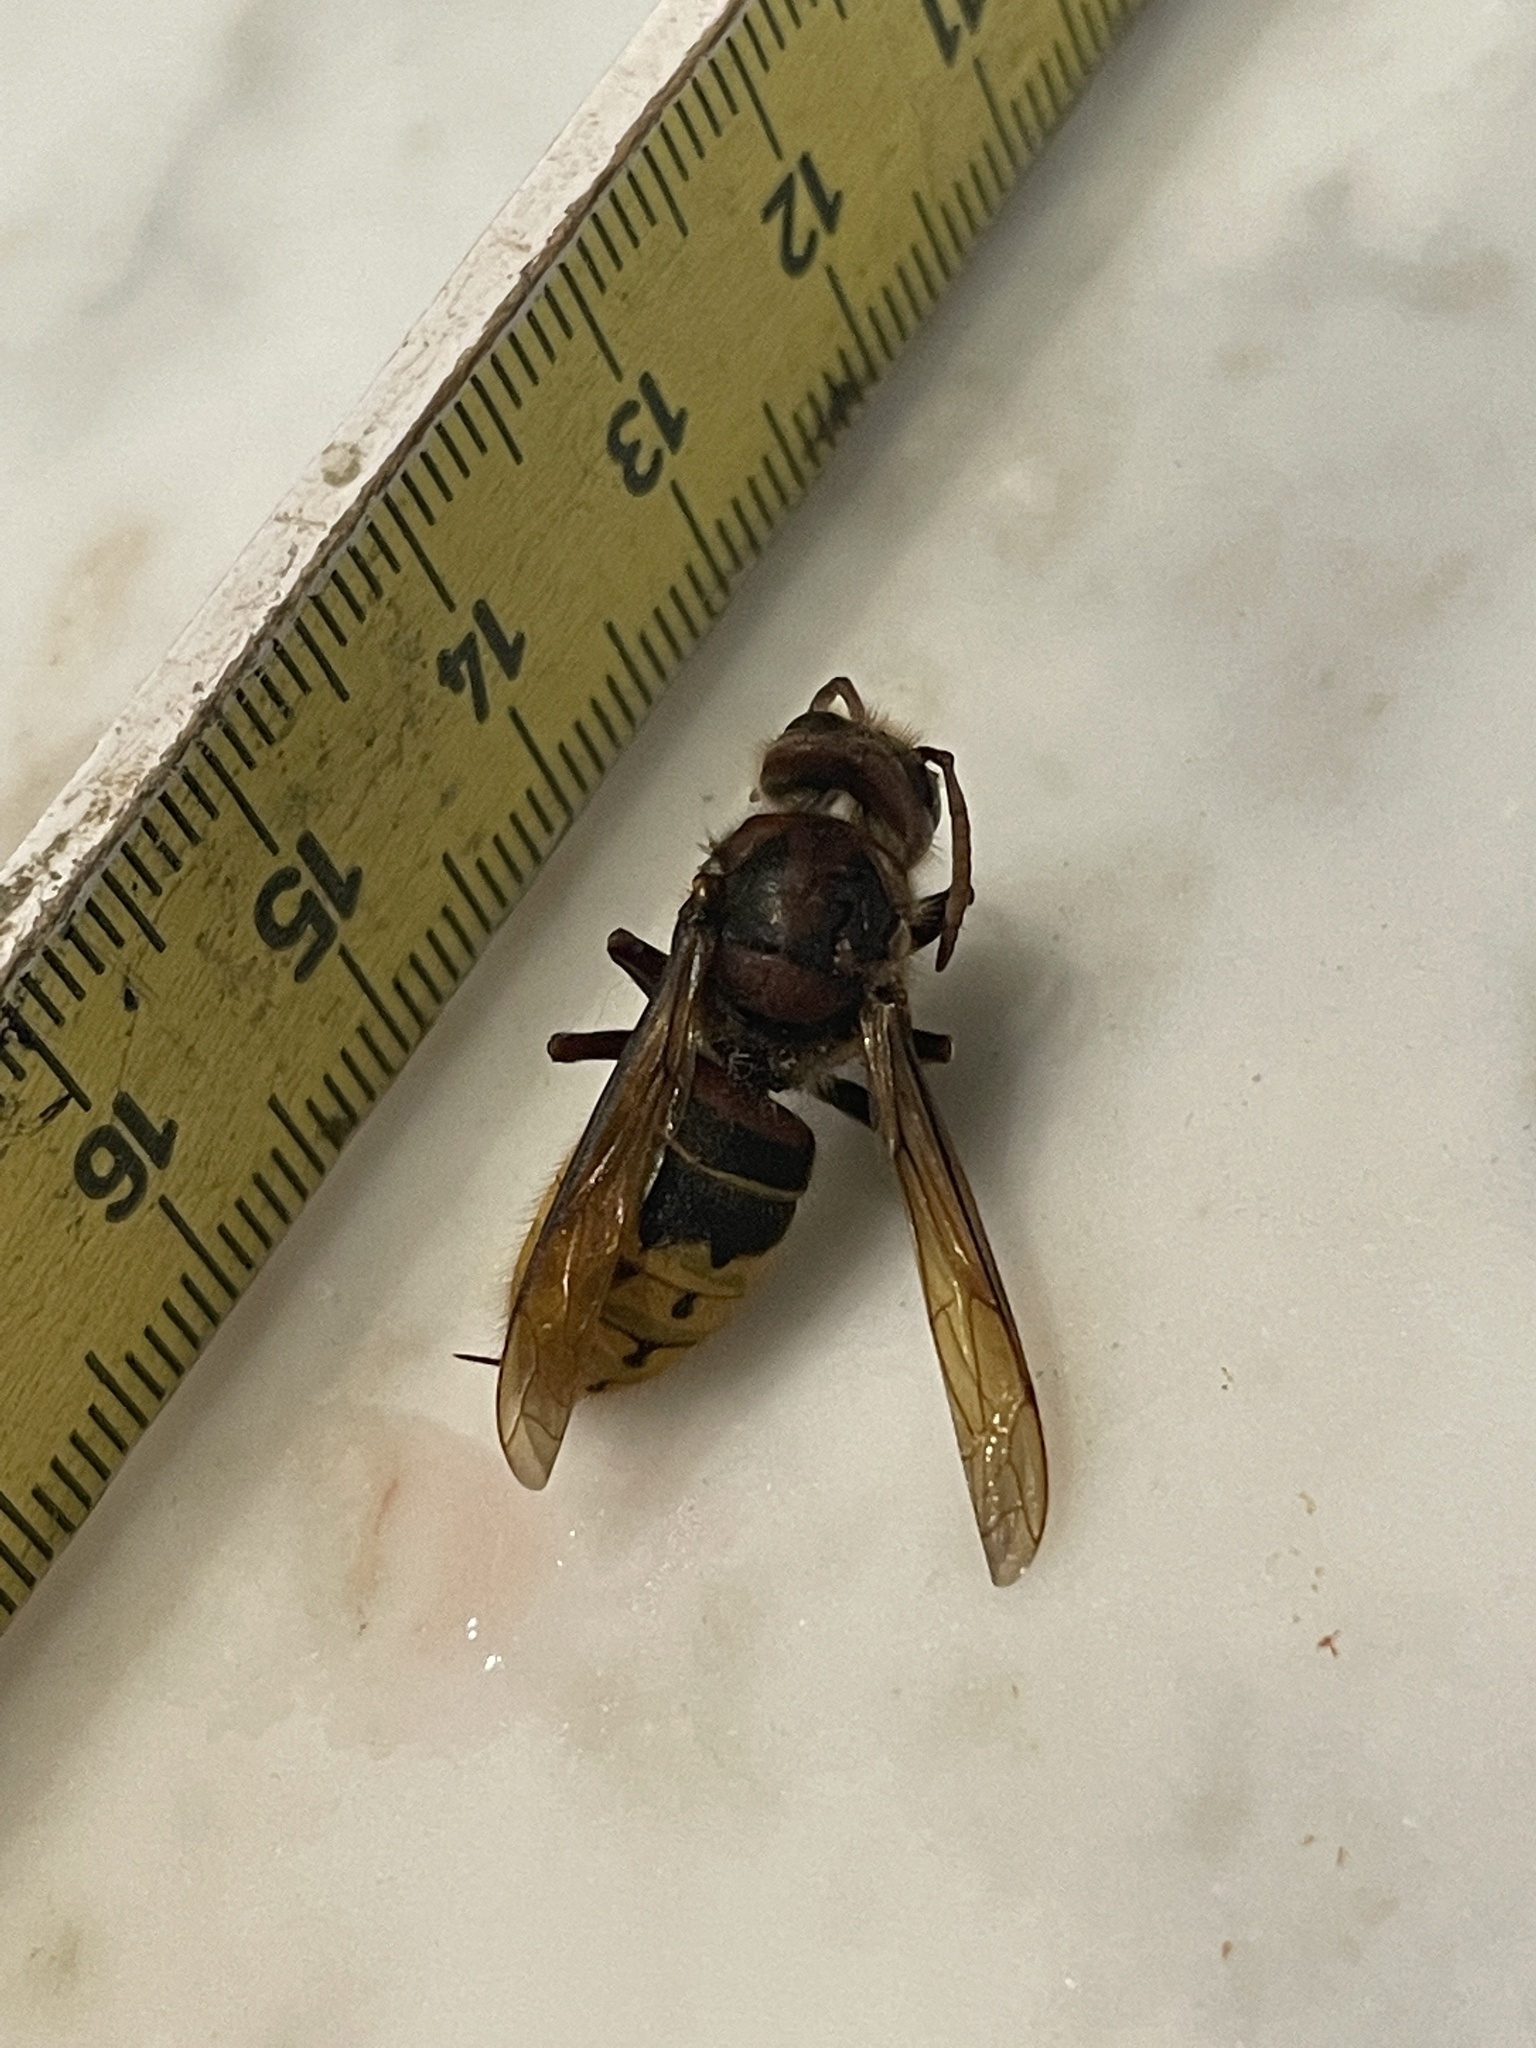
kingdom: Animalia
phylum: Arthropoda
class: Insecta
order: Hymenoptera
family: Vespidae
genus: Vespa
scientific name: Vespa crabro
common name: Hornet
